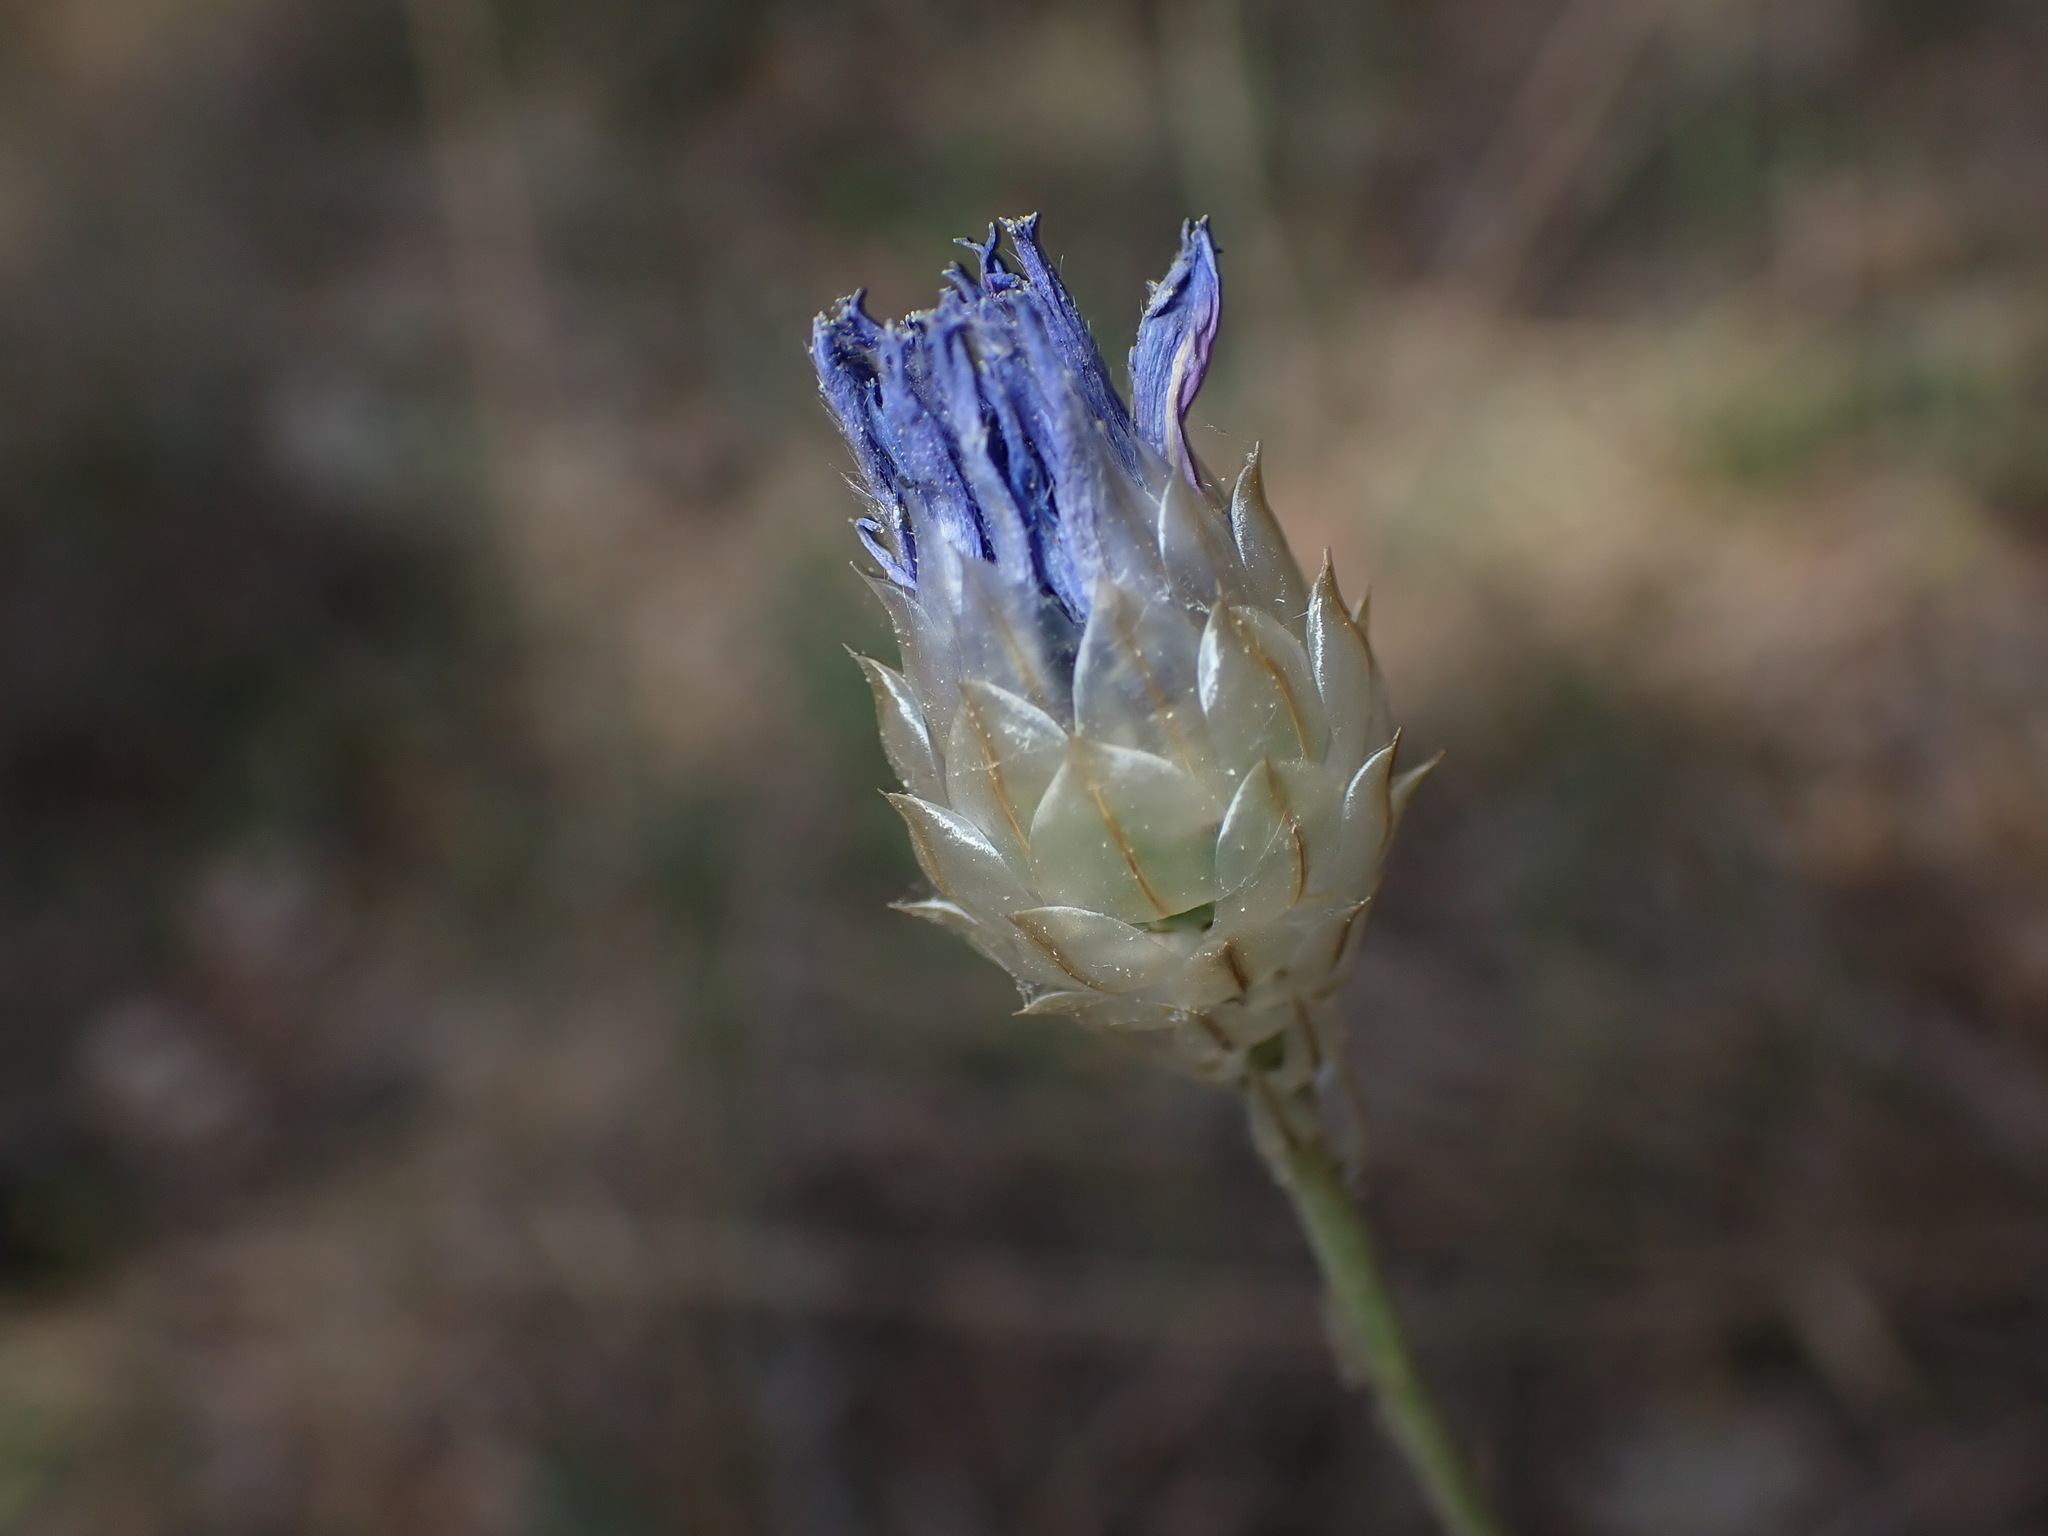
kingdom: Plantae
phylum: Tracheophyta
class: Magnoliopsida
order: Asterales
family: Asteraceae
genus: Catananche
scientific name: Catananche caerulea
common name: Blue cupidone
